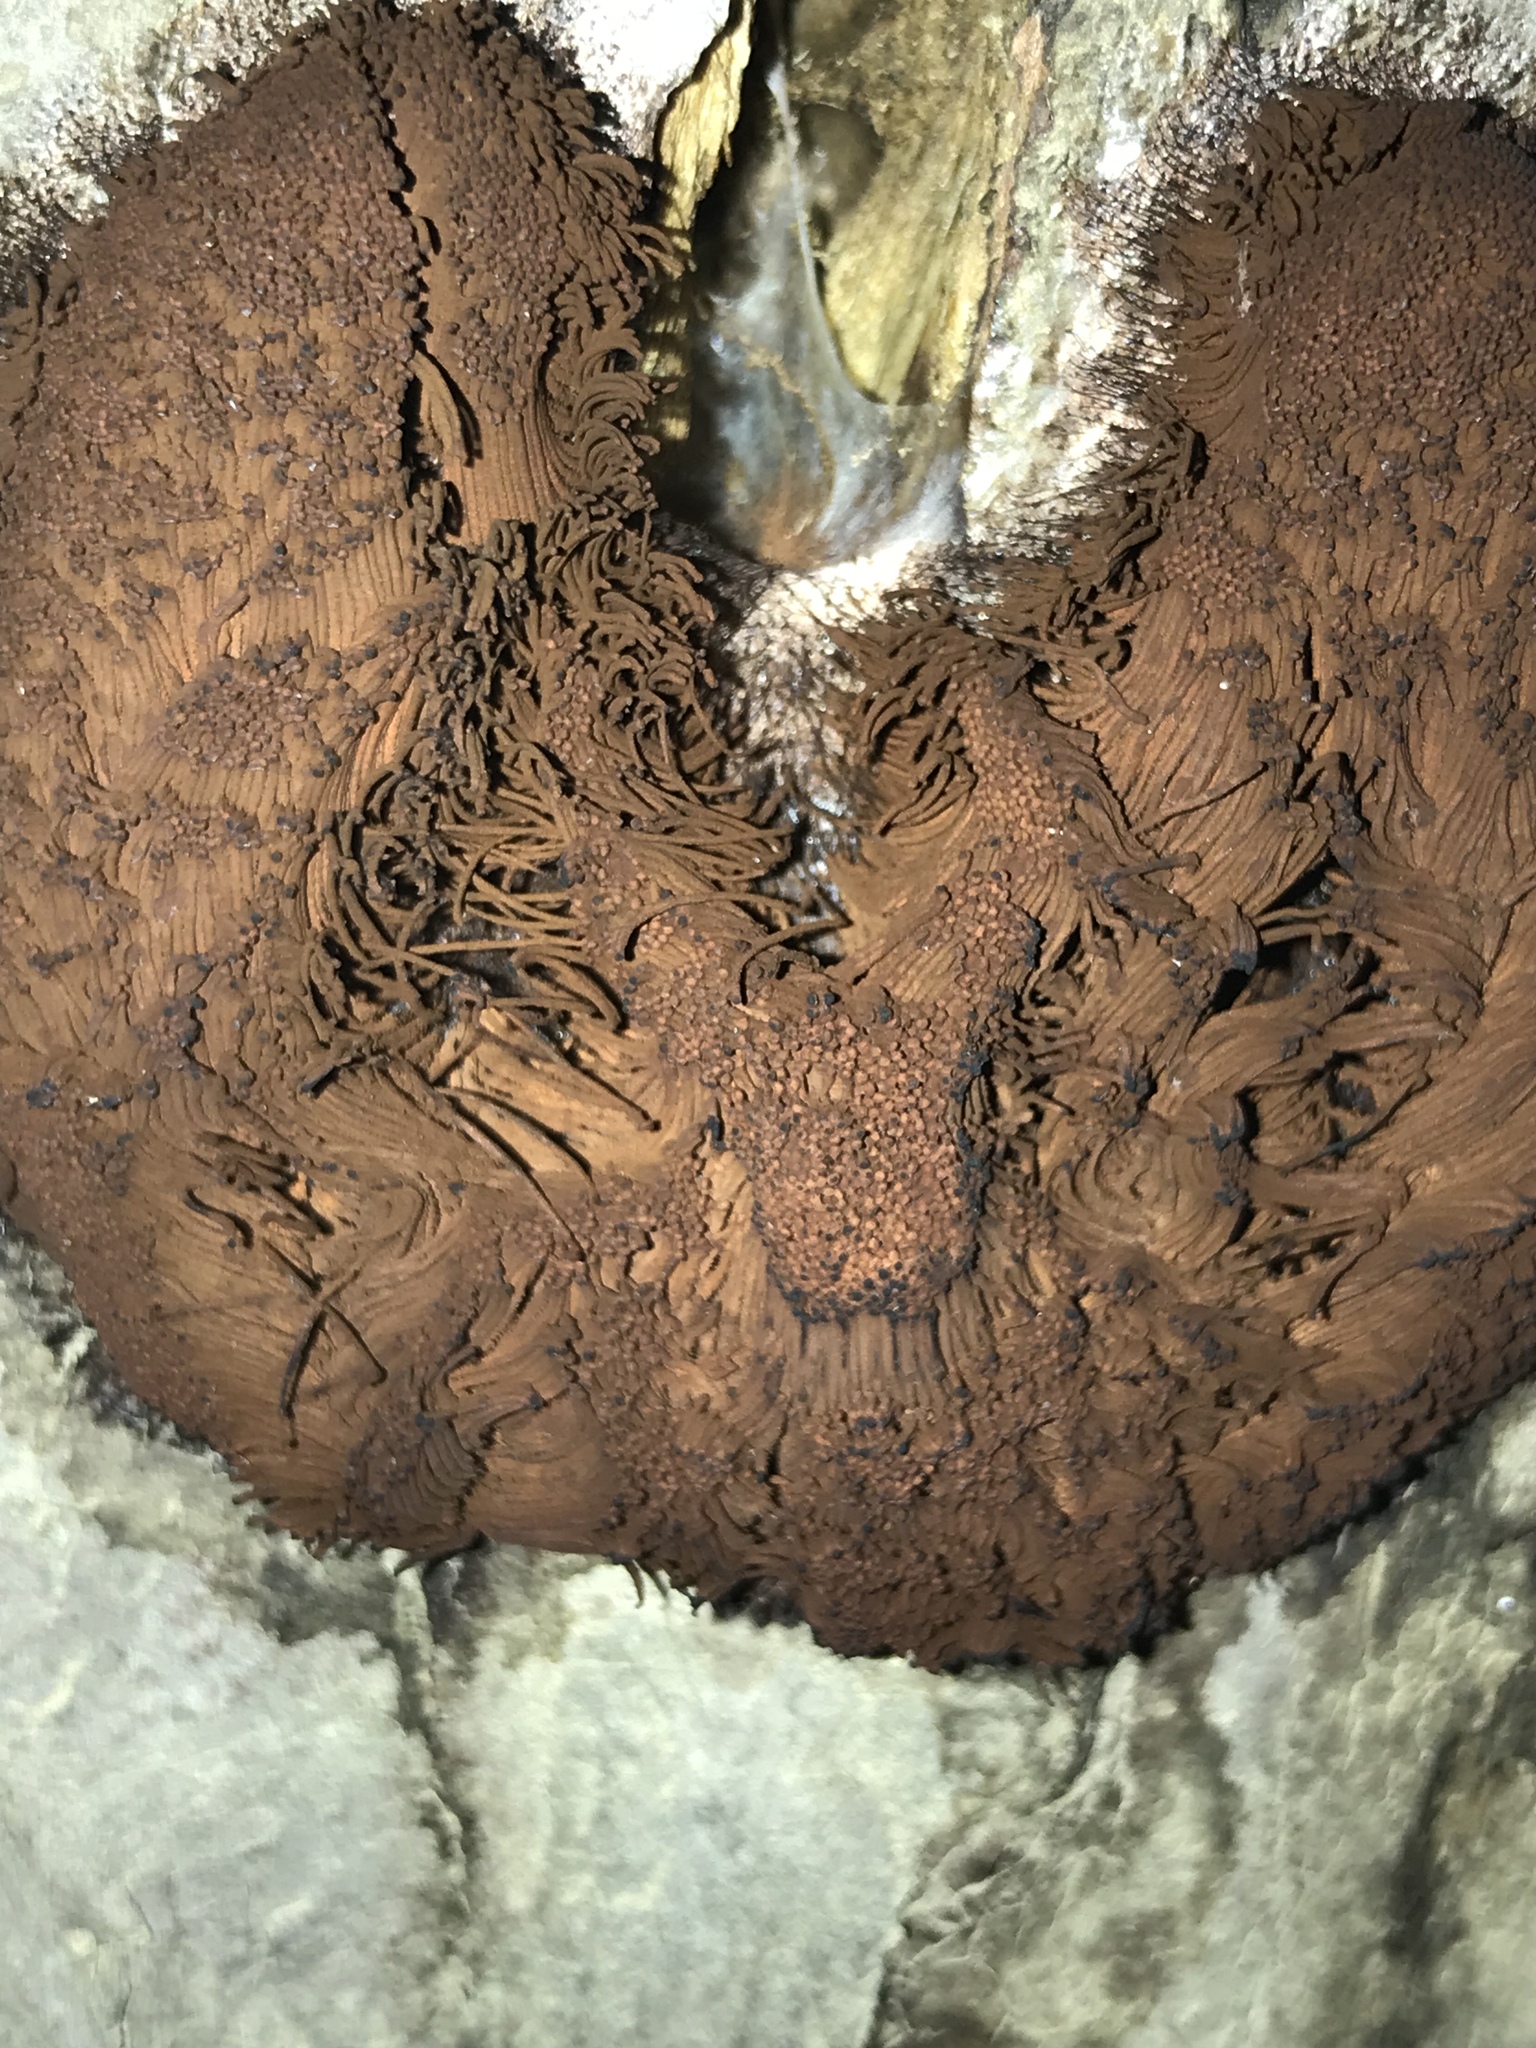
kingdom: Protozoa
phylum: Mycetozoa
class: Myxomycetes
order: Stemonitidales
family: Stemonitidaceae
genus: Stemonitis
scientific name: Stemonitis splendens
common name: Chocolate tube slime
